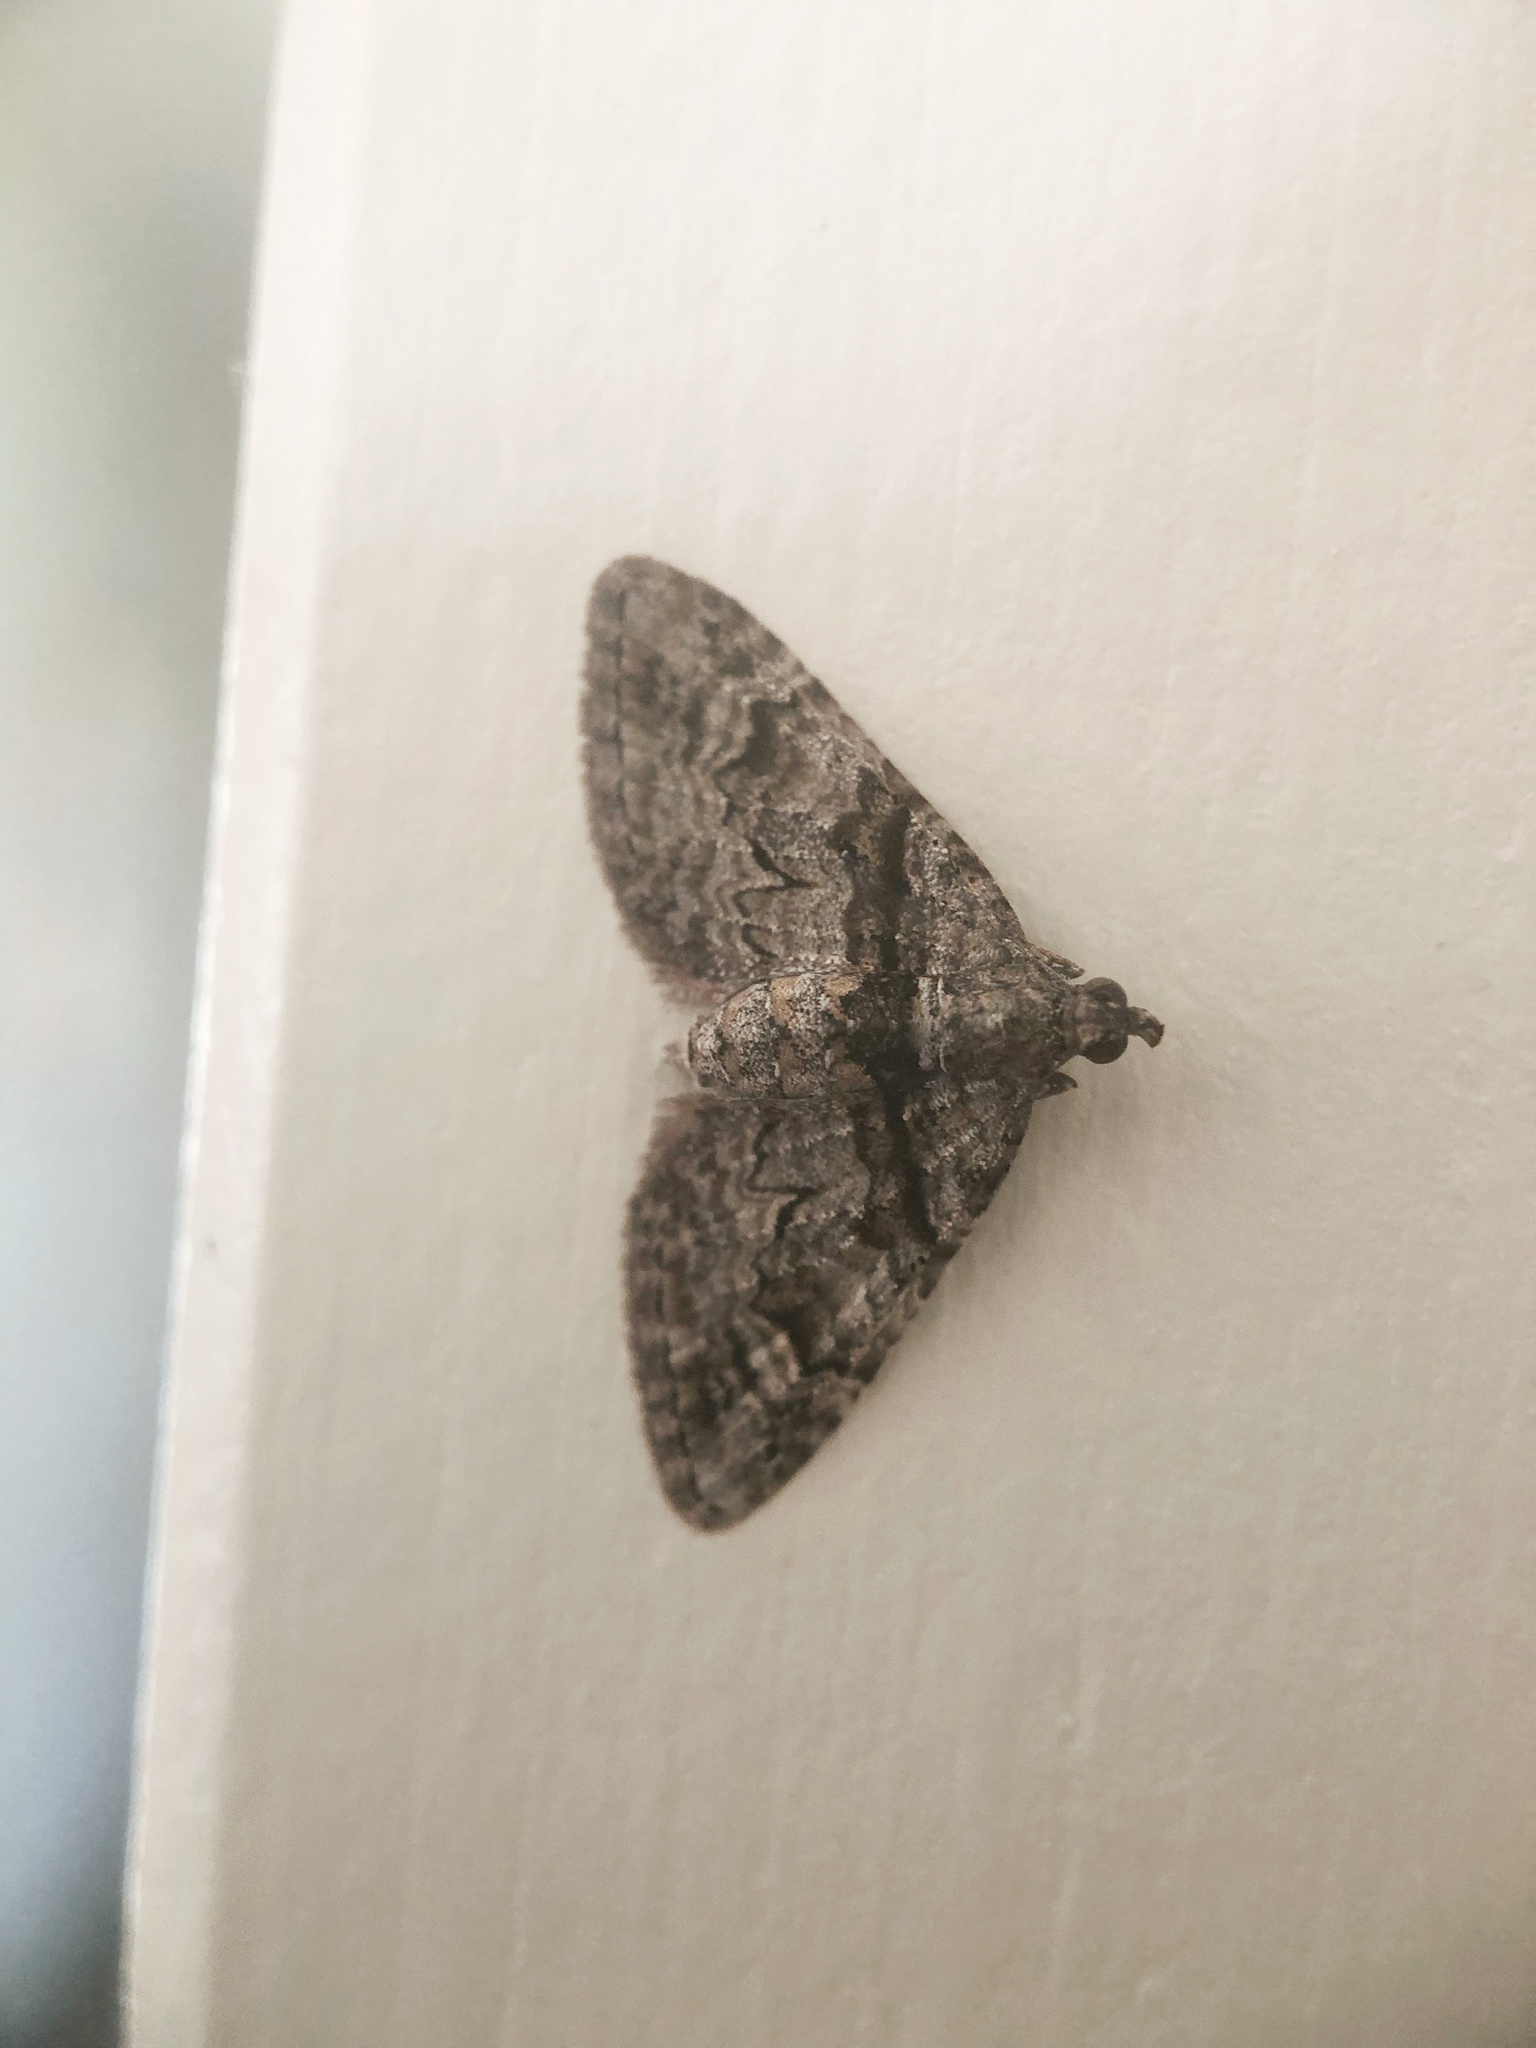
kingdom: Animalia
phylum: Arthropoda
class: Insecta
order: Lepidoptera
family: Geometridae
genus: Phrissogonus
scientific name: Phrissogonus laticostata
